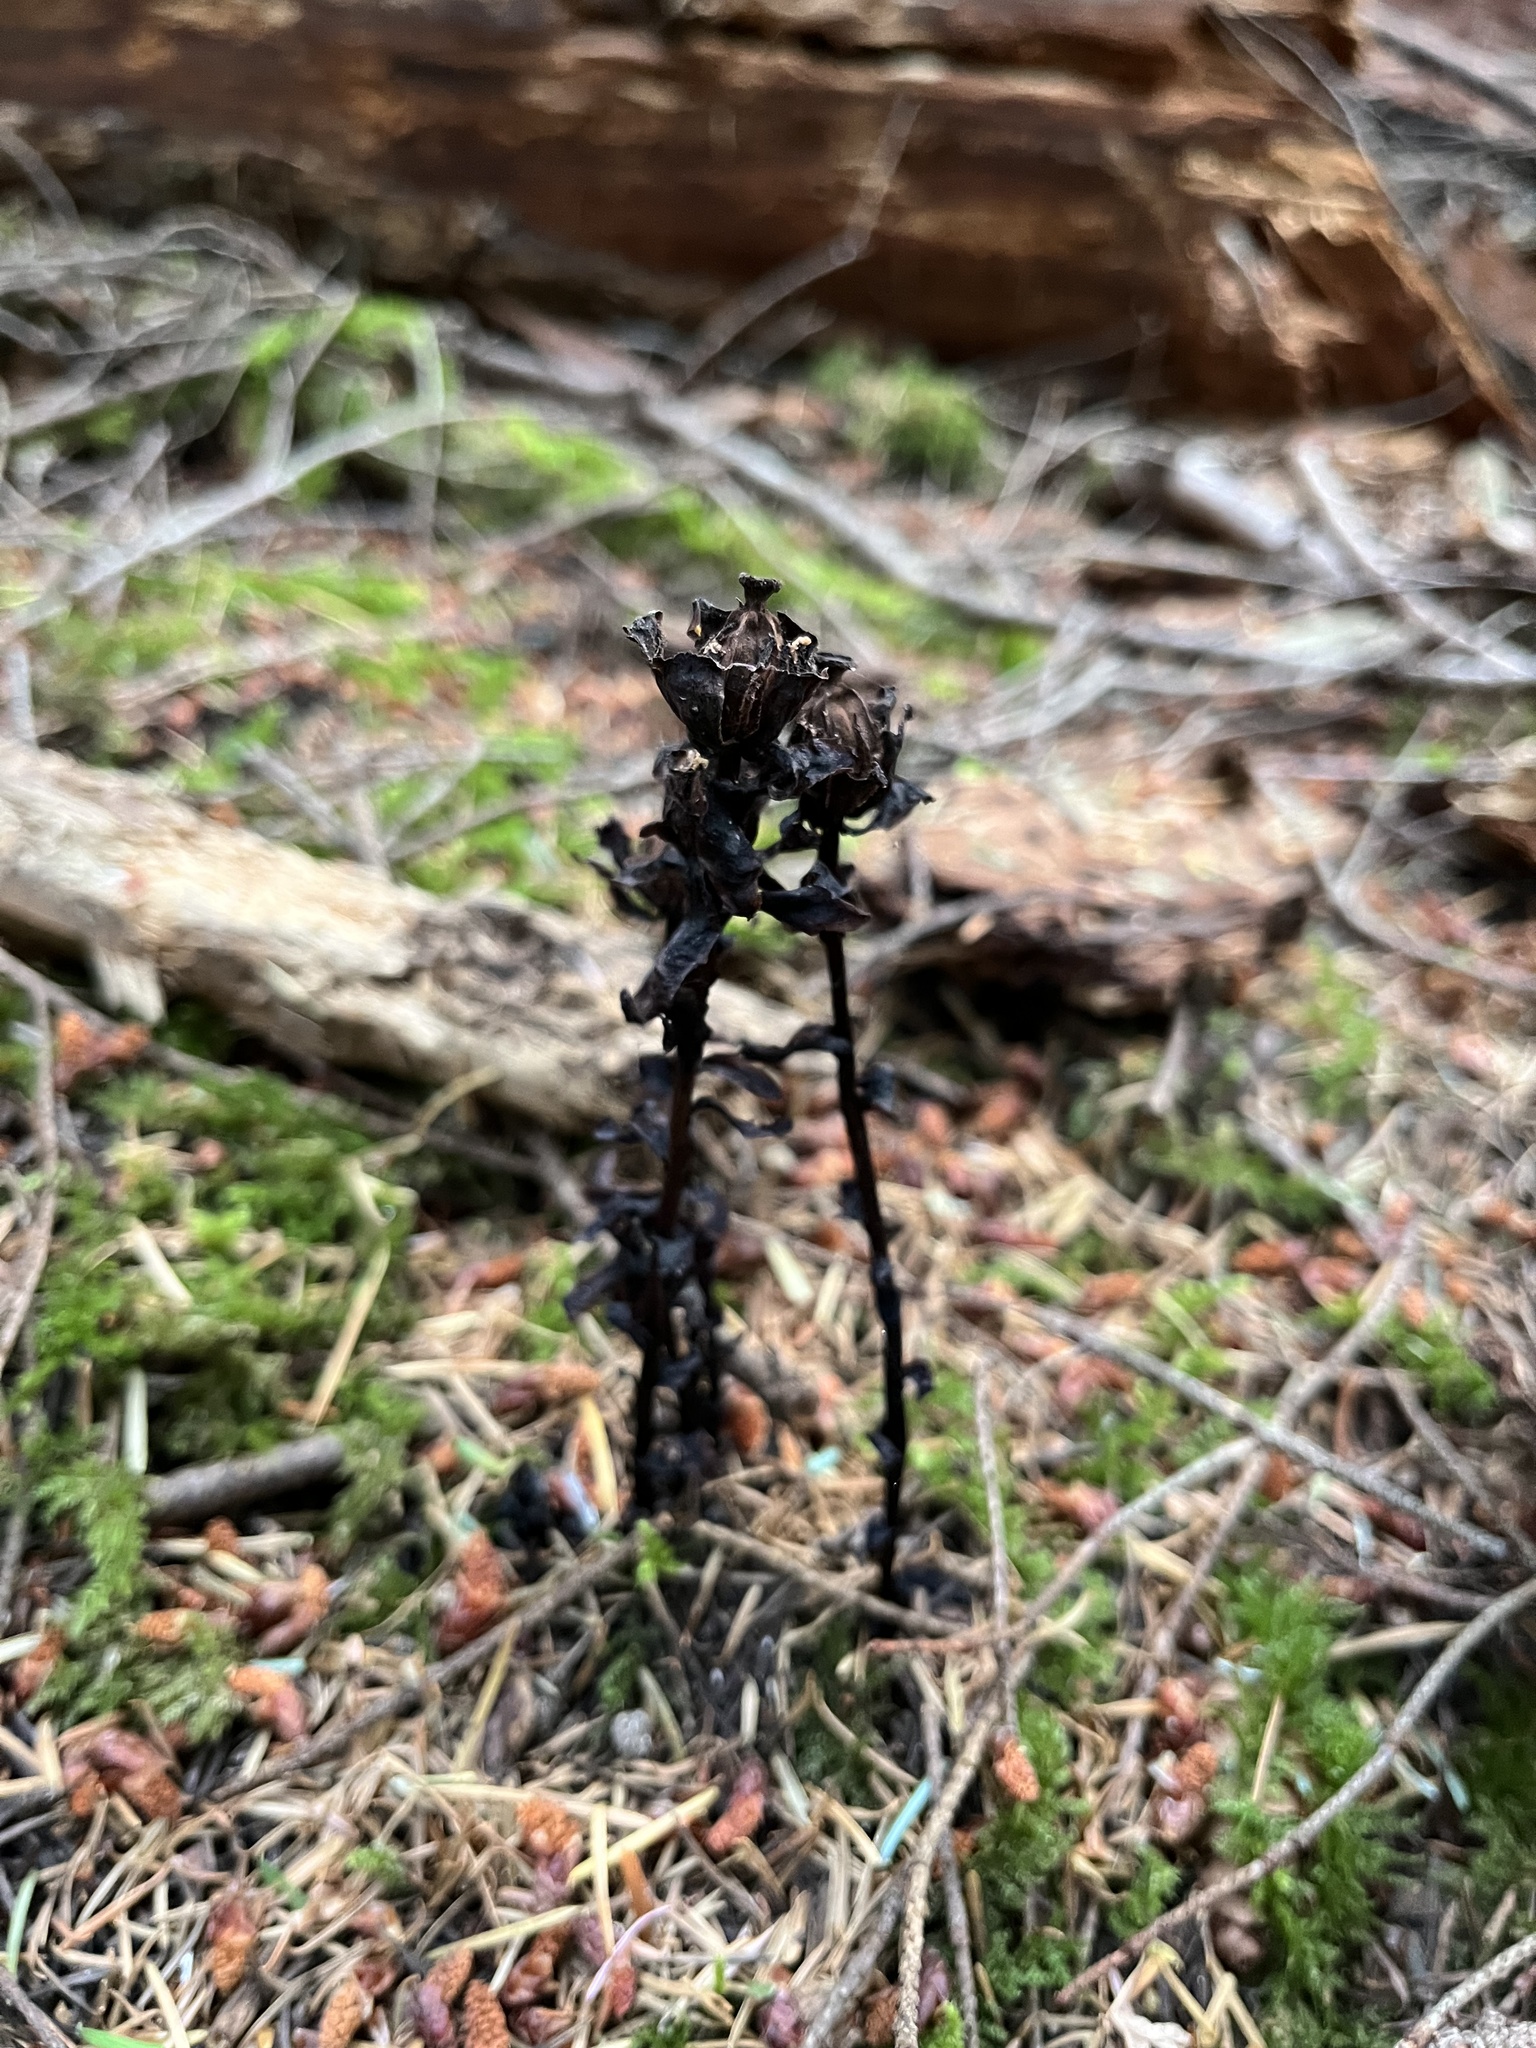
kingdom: Plantae
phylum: Tracheophyta
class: Magnoliopsida
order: Ericales
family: Ericaceae
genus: Monotropa
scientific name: Monotropa uniflora
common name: Convulsion root
